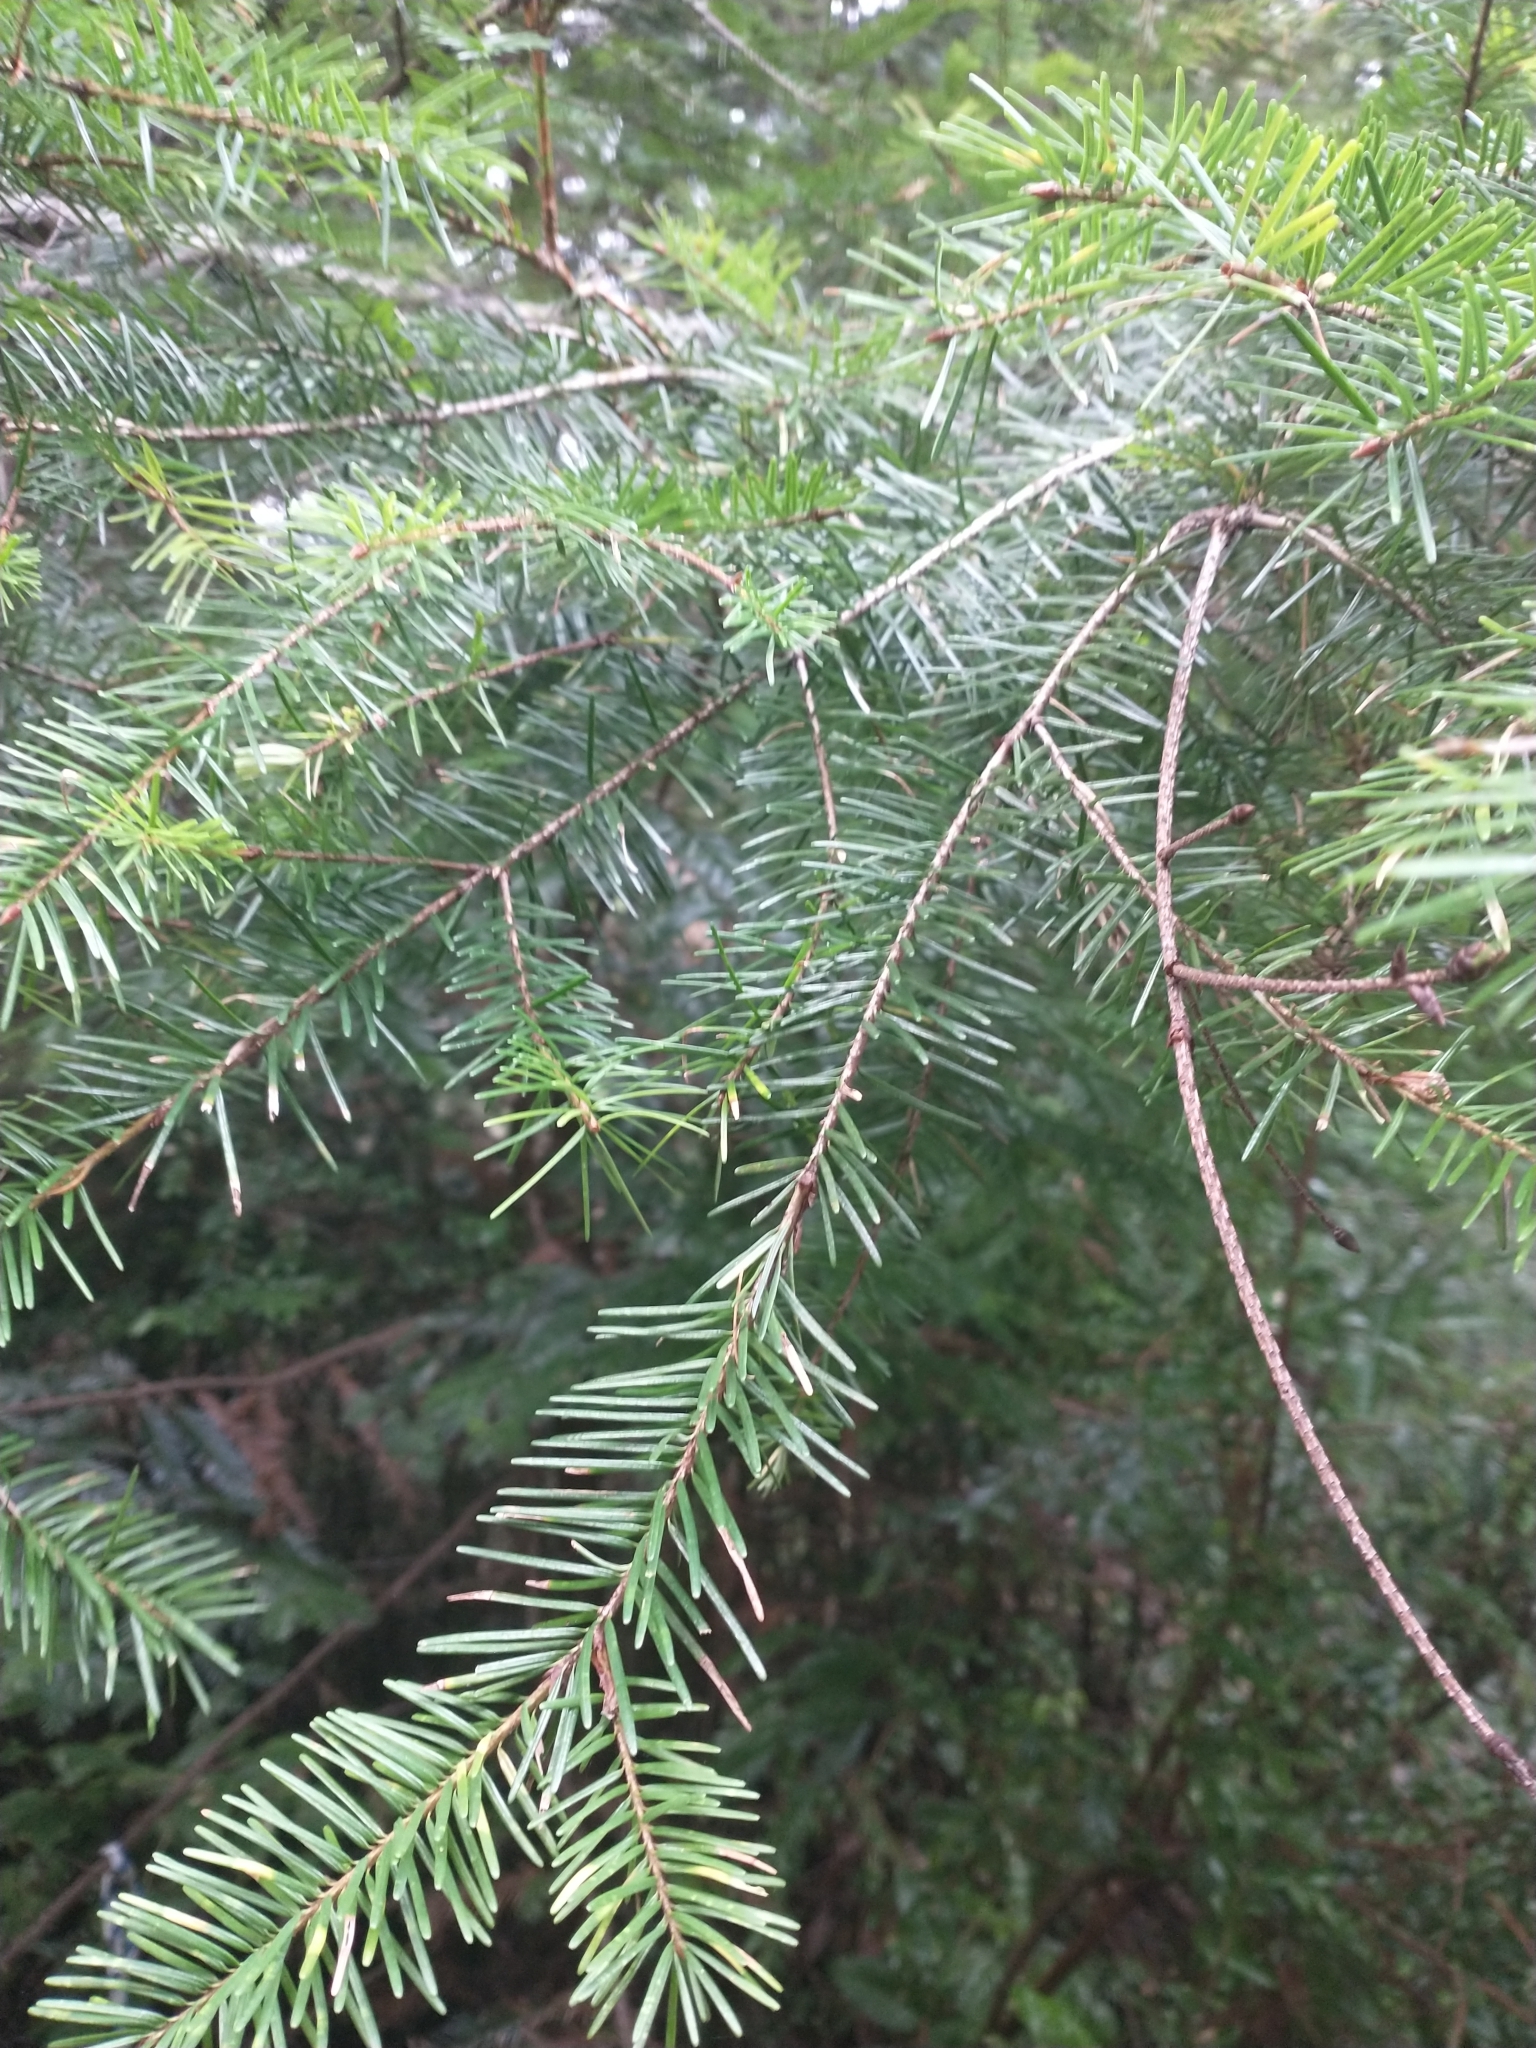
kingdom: Plantae
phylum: Tracheophyta
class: Pinopsida
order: Pinales
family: Pinaceae
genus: Pseudotsuga
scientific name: Pseudotsuga menziesii
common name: Douglas fir
